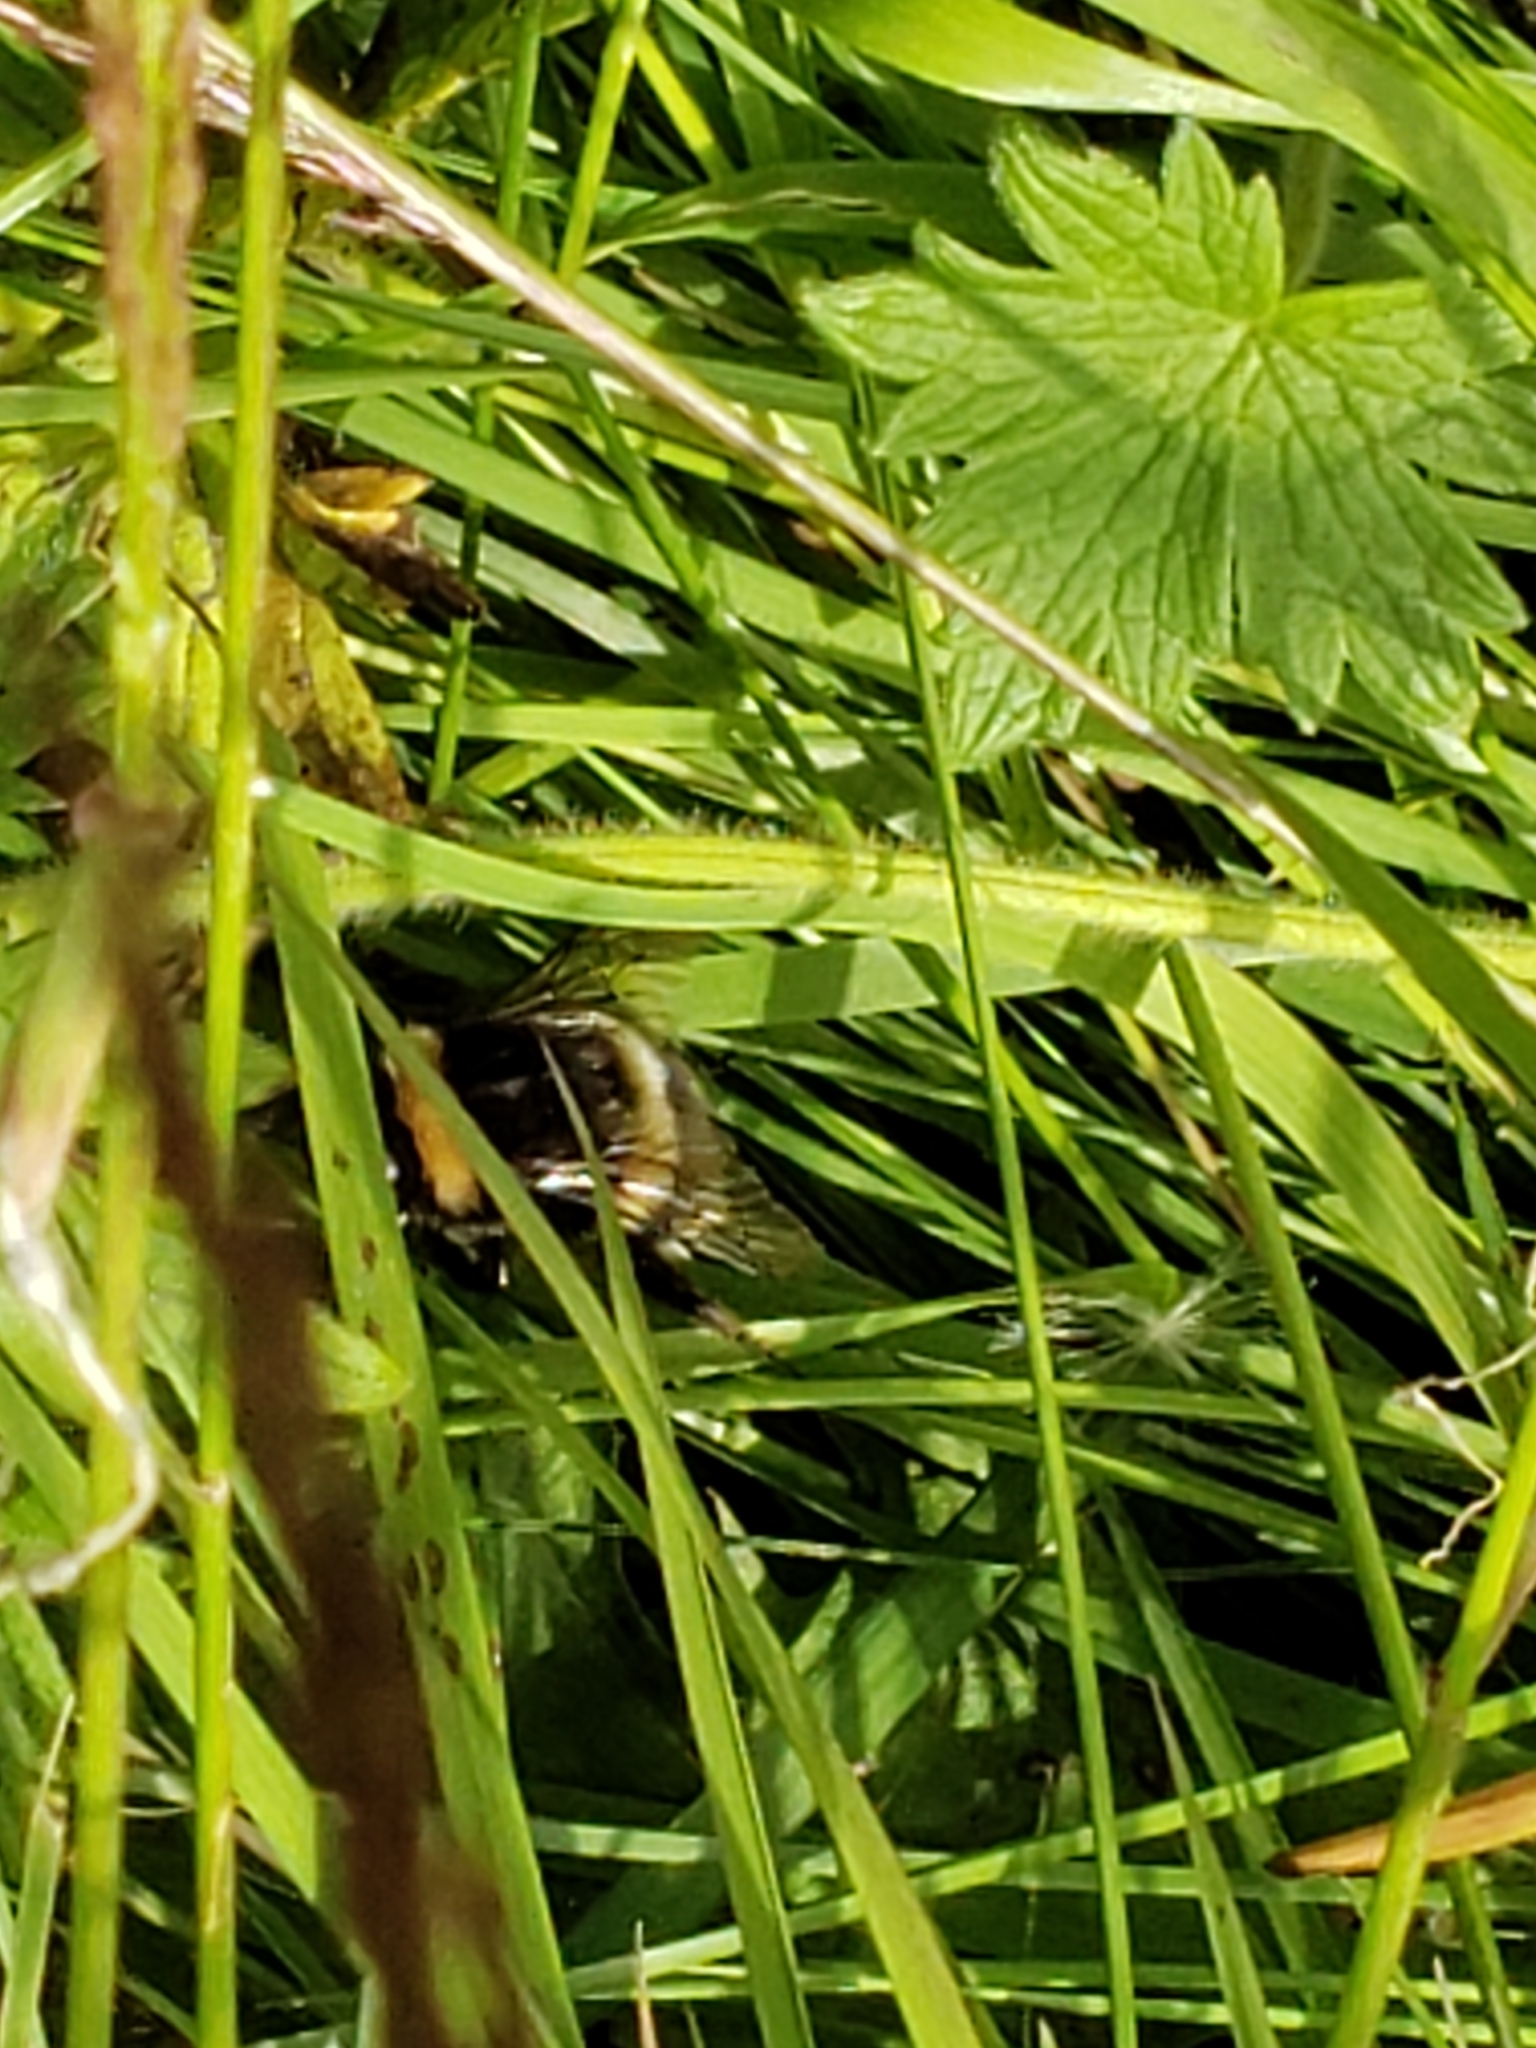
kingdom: Animalia
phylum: Arthropoda
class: Insecta
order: Hymenoptera
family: Apidae
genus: Bombus
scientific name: Bombus lucorum
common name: White-tailed bumblebee
